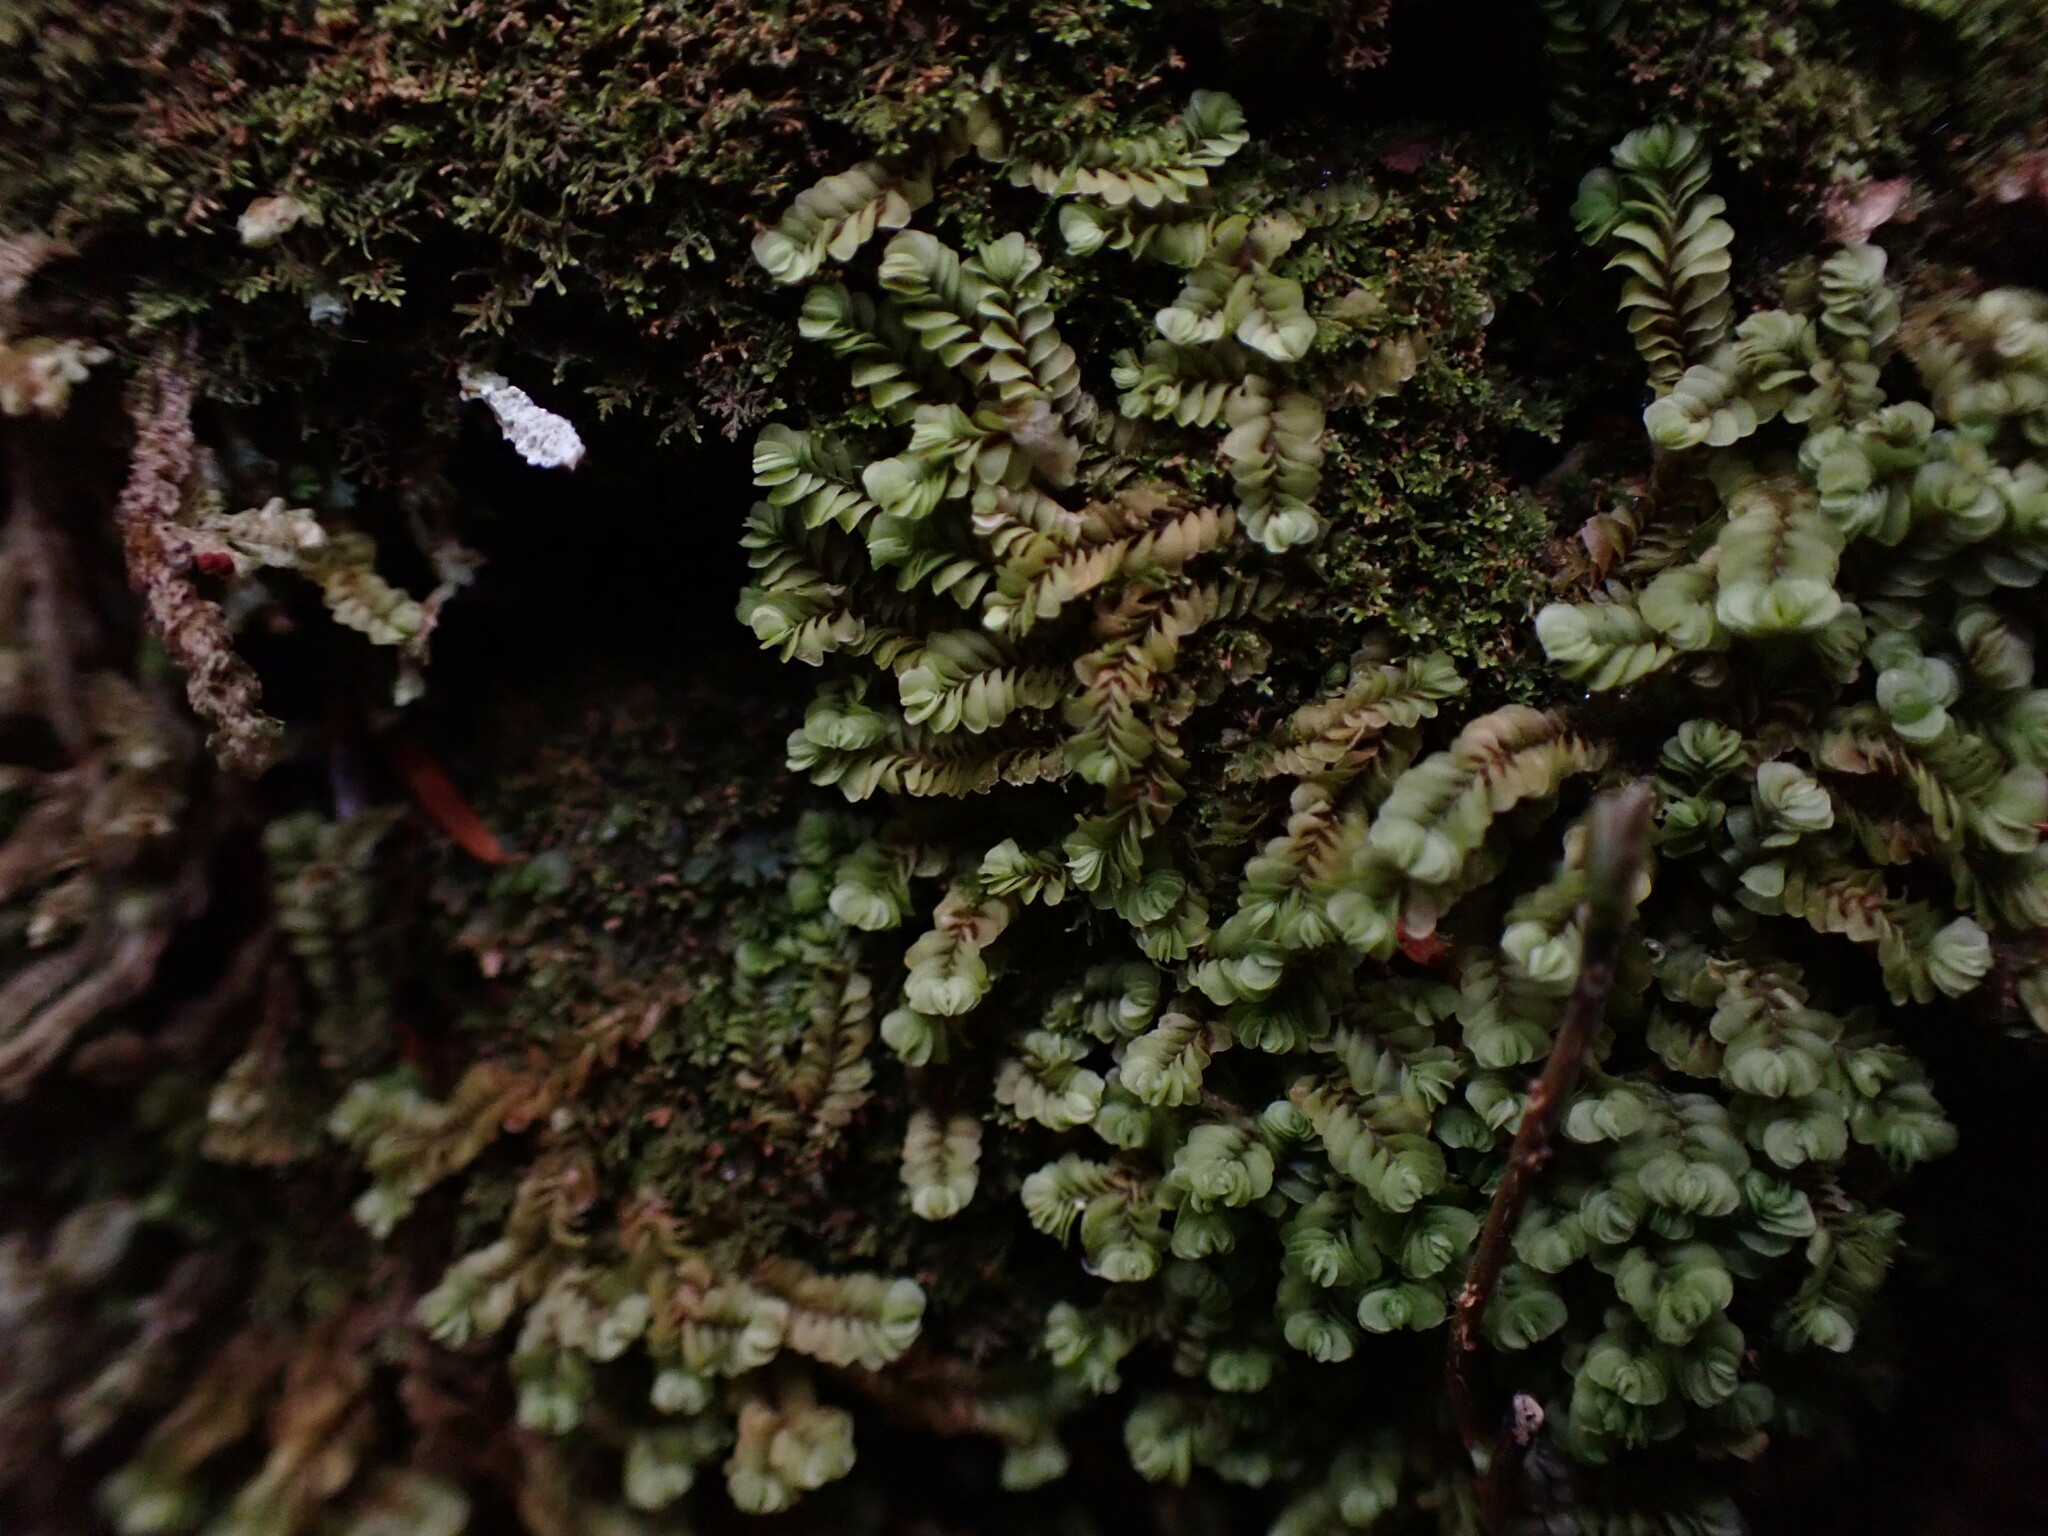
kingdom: Plantae
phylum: Marchantiophyta
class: Jungermanniopsida
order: Jungermanniales
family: Myliaceae
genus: Mylia
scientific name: Mylia taylorii
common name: Taylor s flapwort
